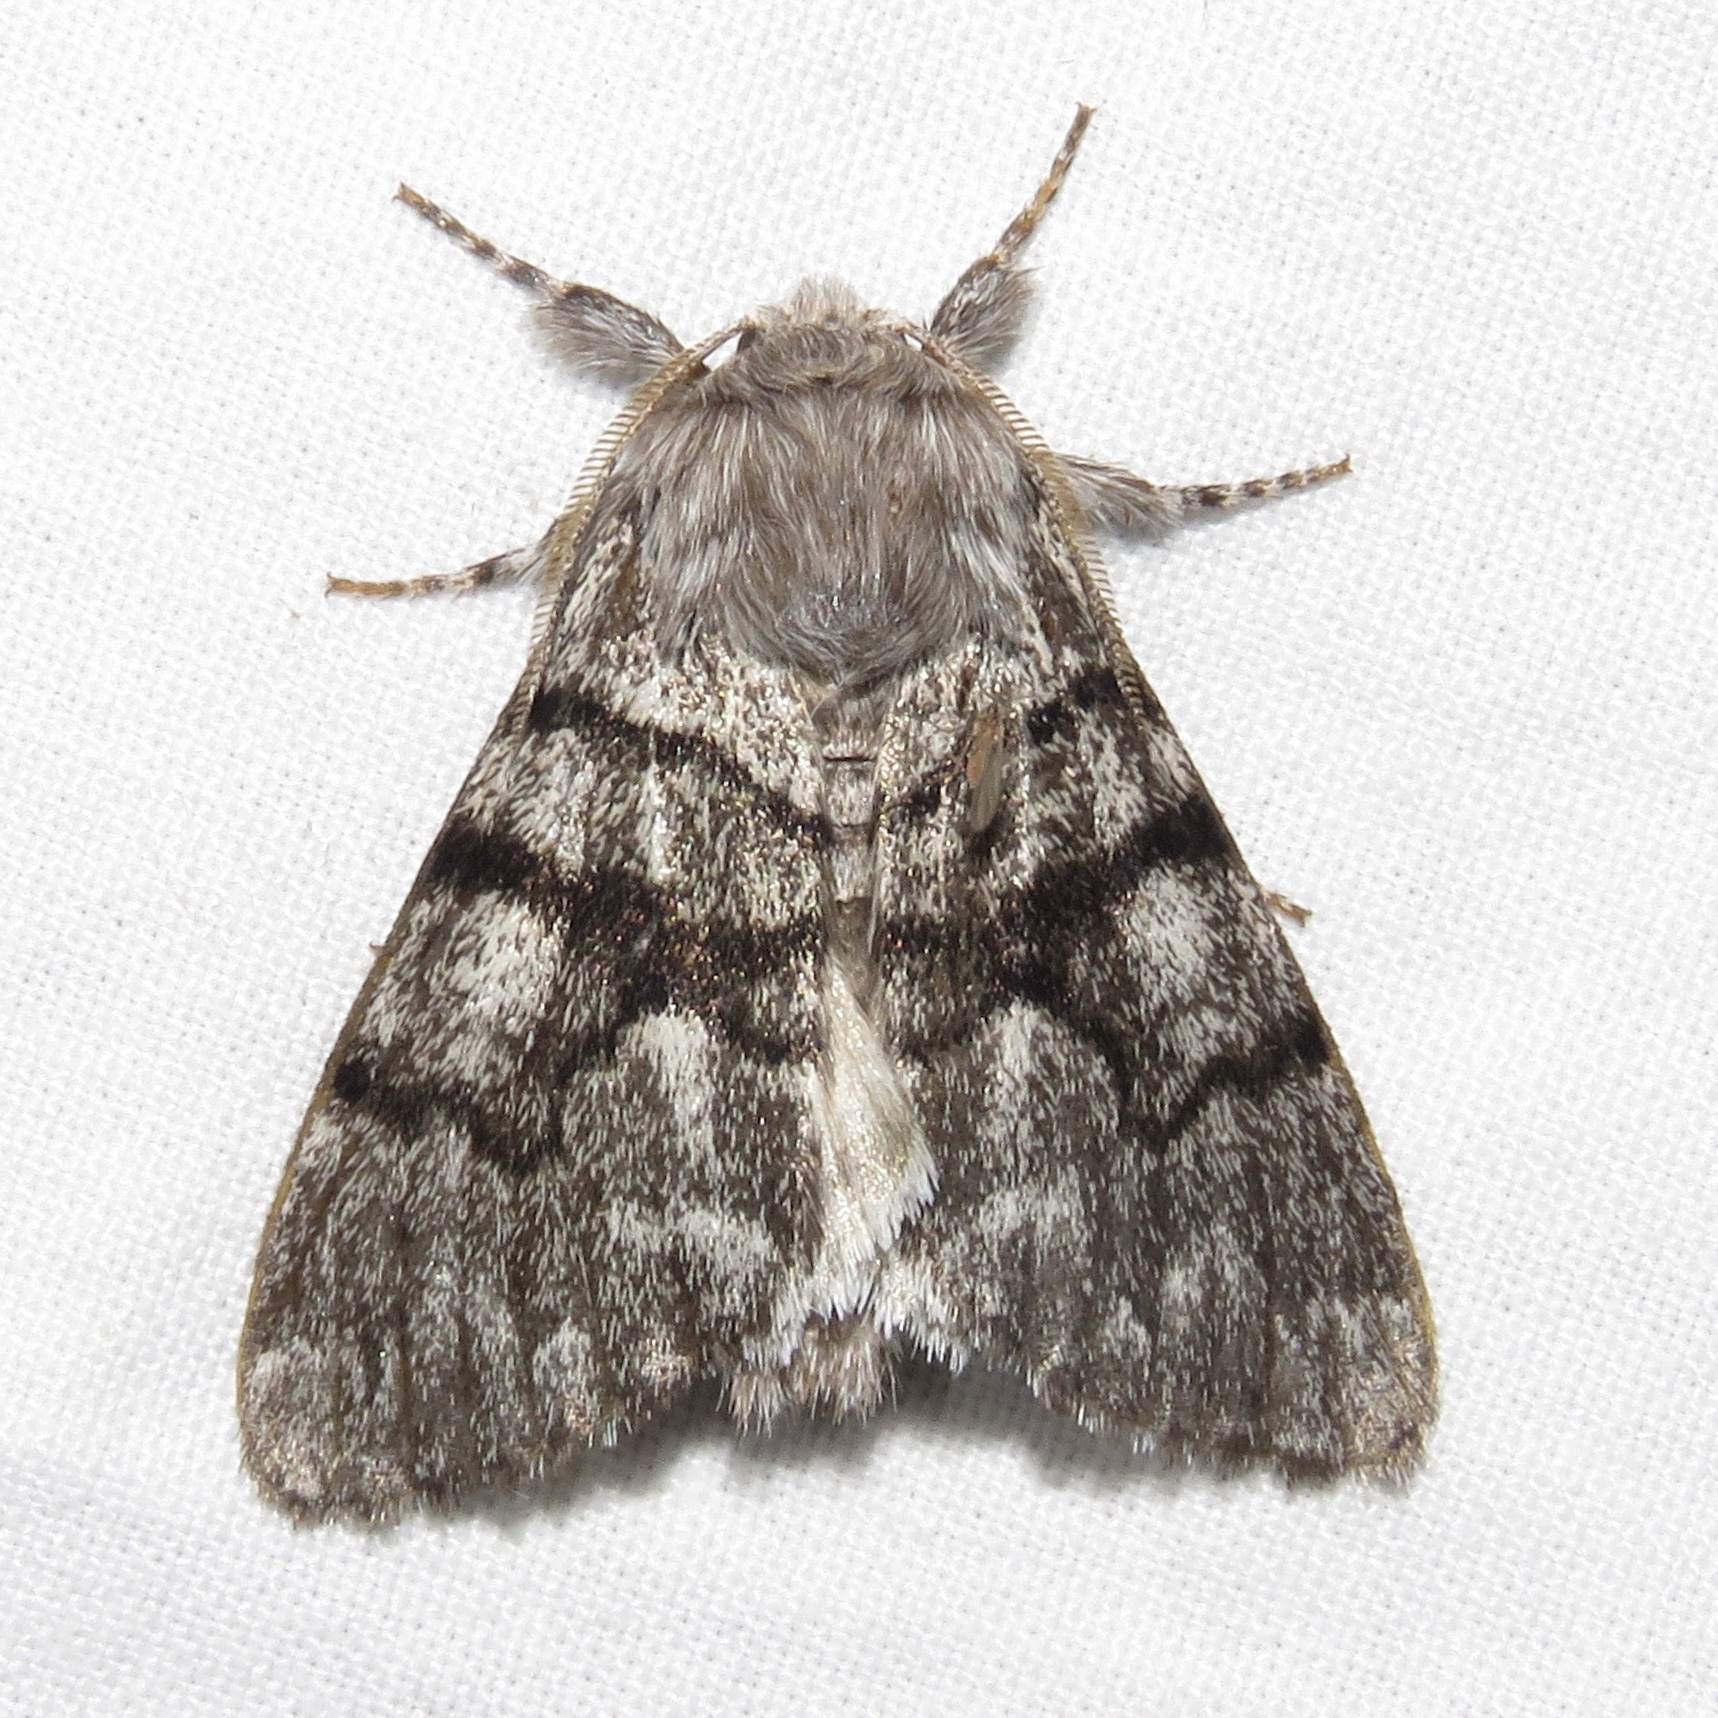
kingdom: Animalia
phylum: Arthropoda
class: Insecta
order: Lepidoptera
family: Noctuidae
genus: Panthea
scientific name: Panthea furcilla
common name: Eastern panthea moth
